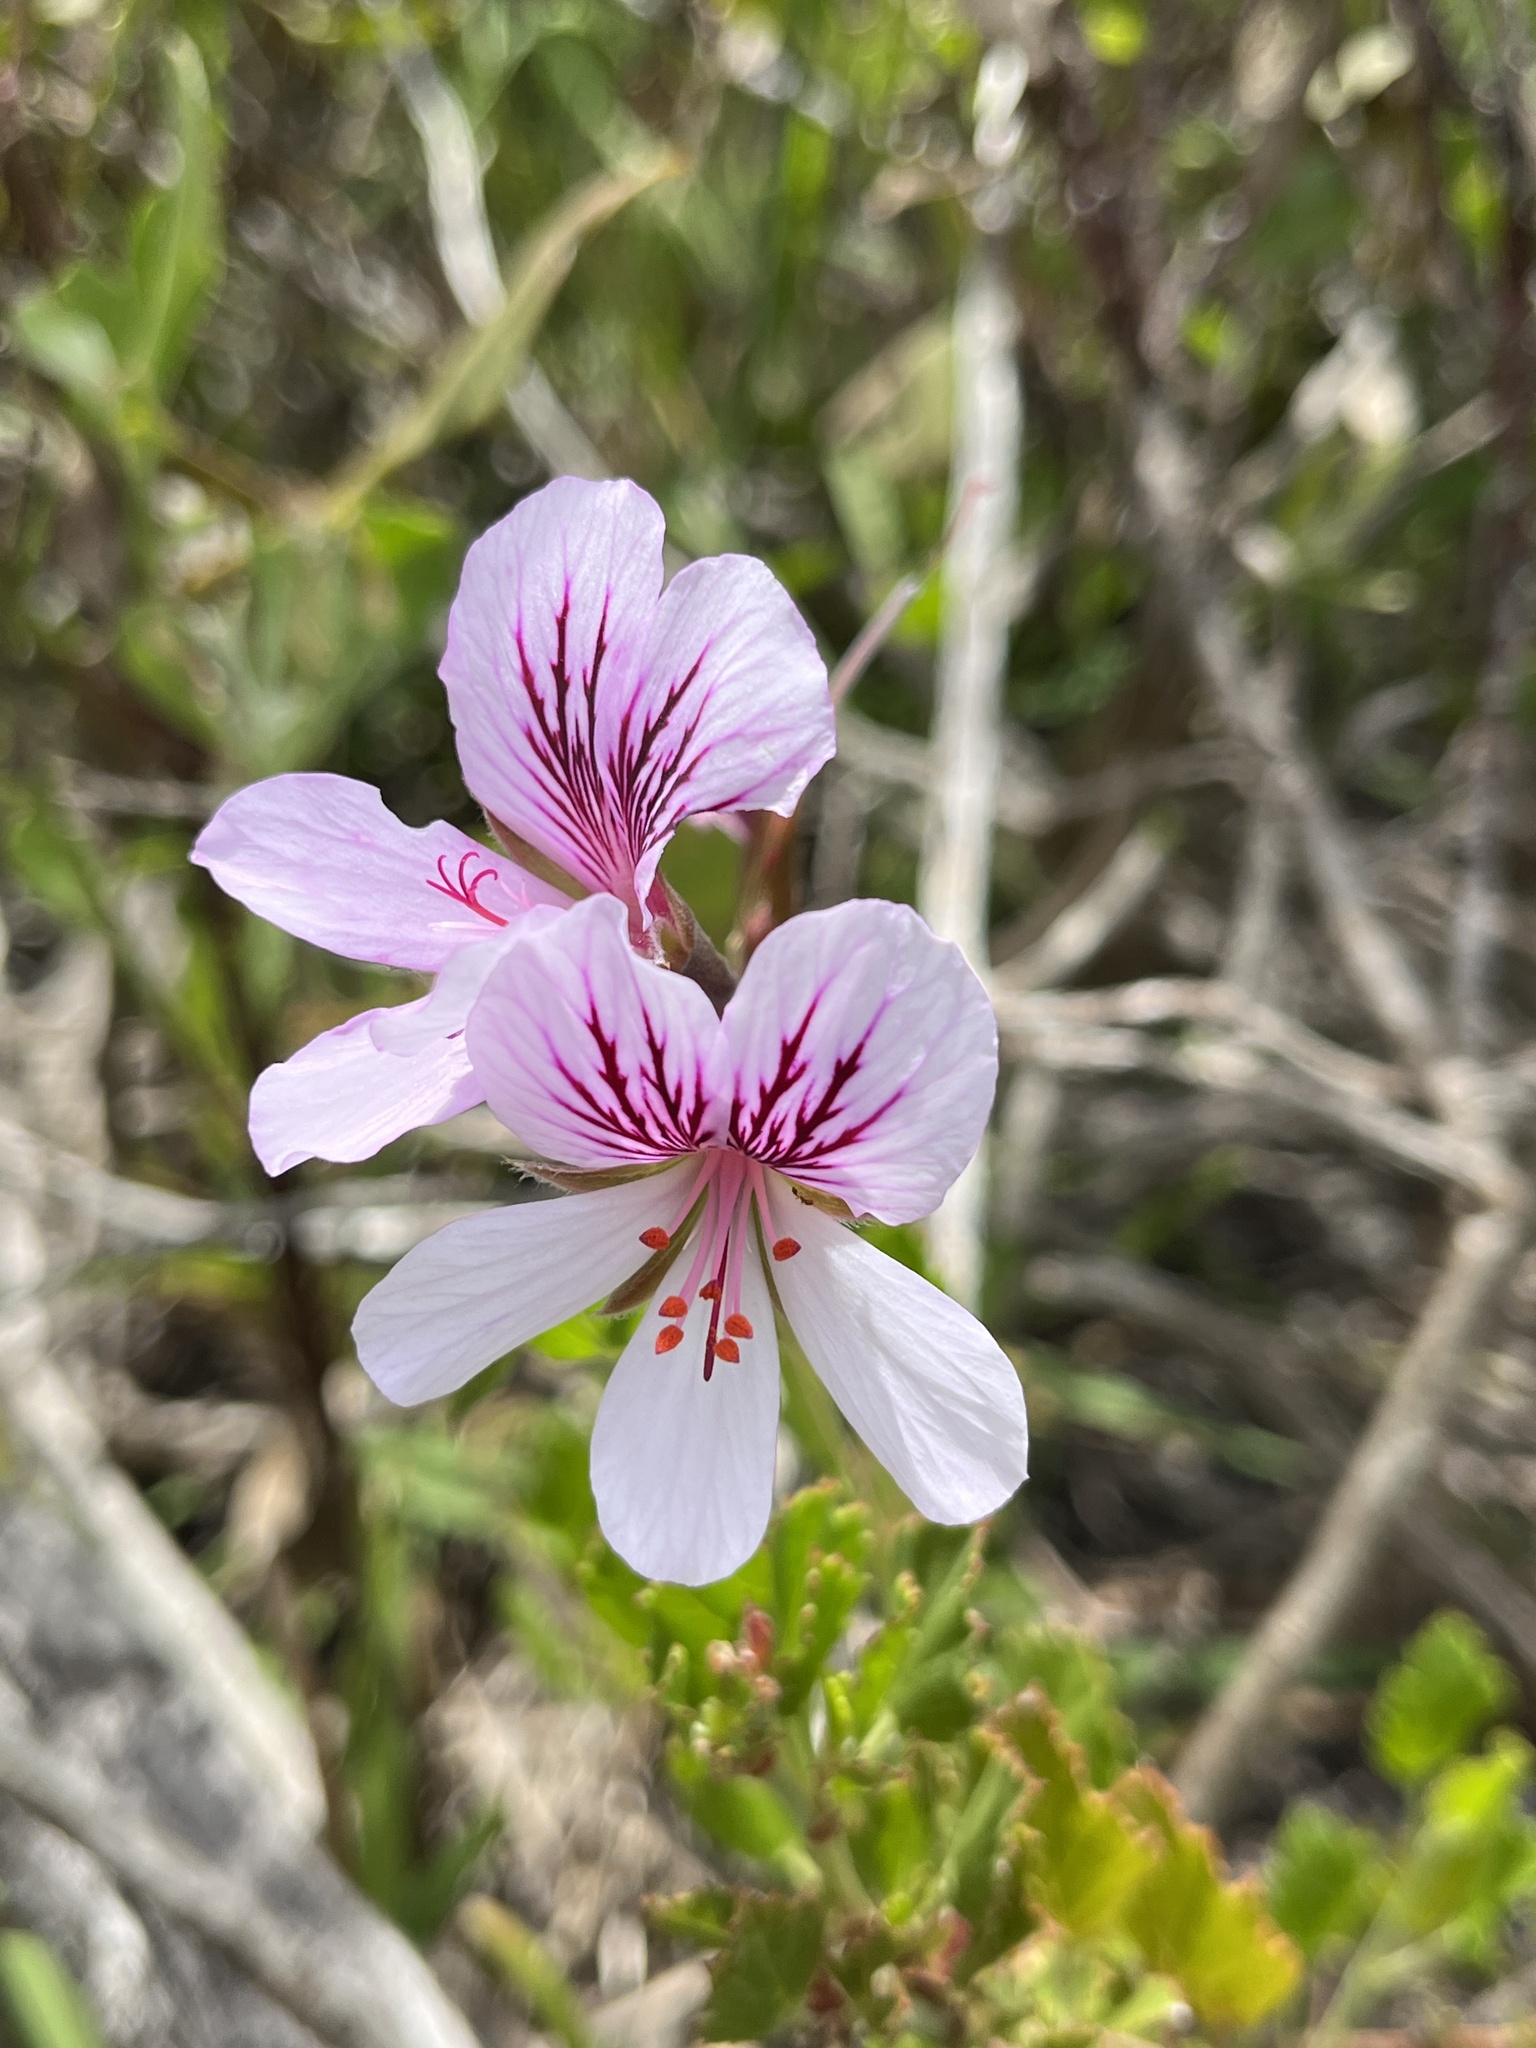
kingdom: Plantae
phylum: Tracheophyta
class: Magnoliopsida
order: Geraniales
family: Geraniaceae
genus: Pelargonium
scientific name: Pelargonium betulinum
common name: Birch-leaf pelargonium
